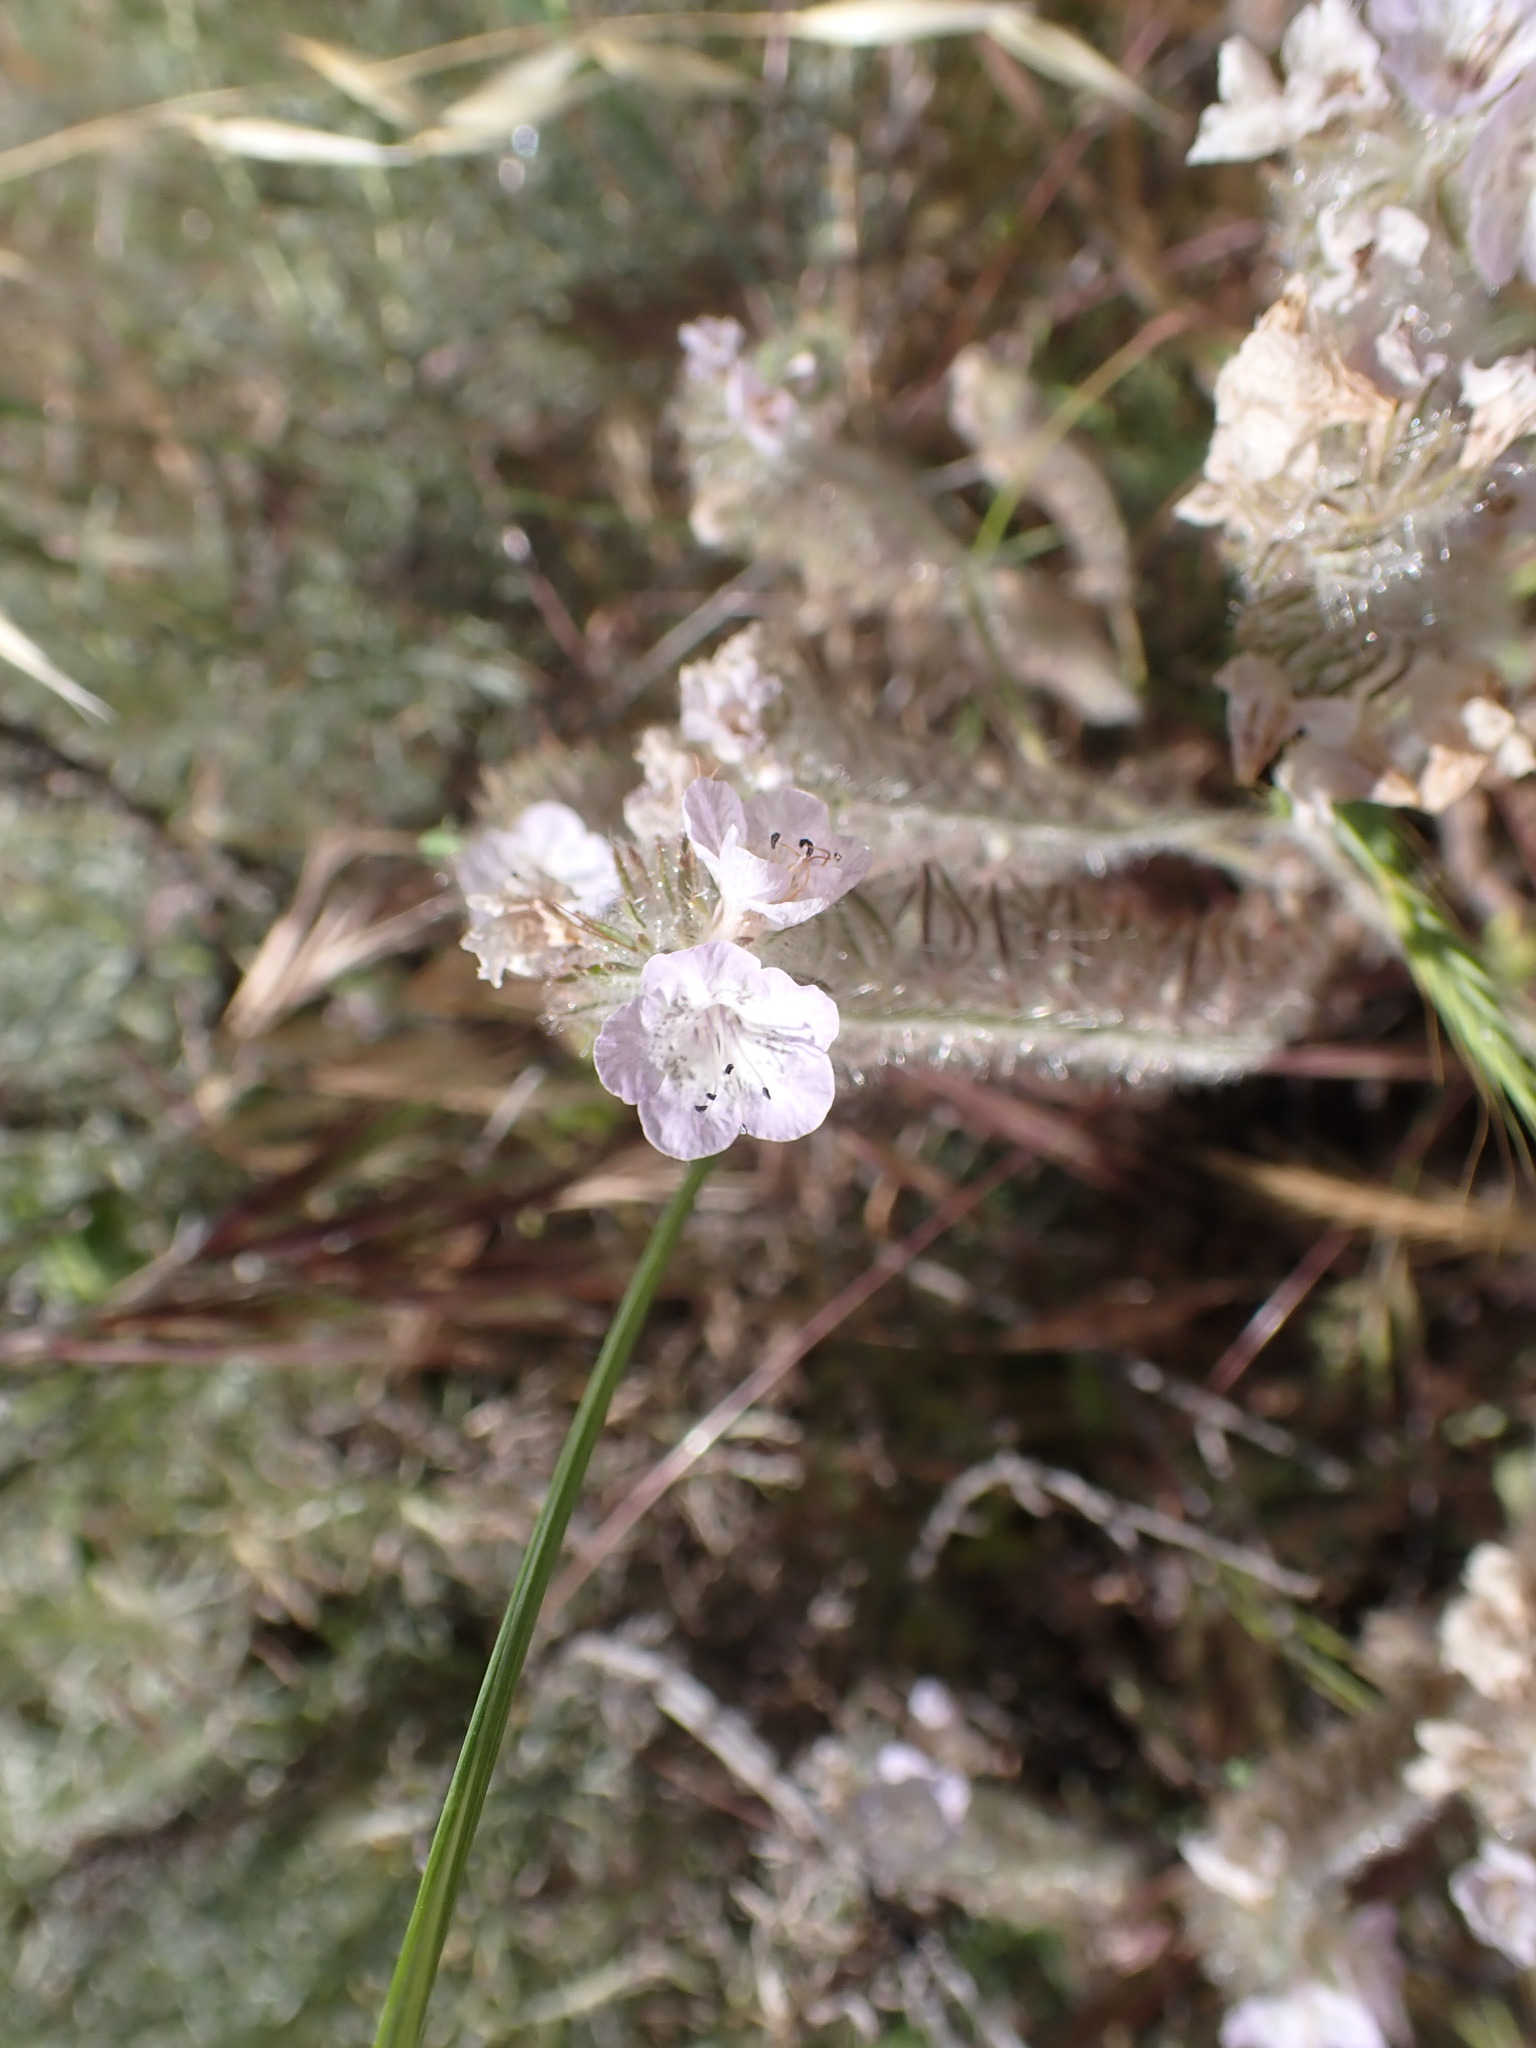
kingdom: Plantae
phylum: Tracheophyta
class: Magnoliopsida
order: Boraginales
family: Hydrophyllaceae
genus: Phacelia
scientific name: Phacelia cicutaria
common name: Caterpillar phacelia
